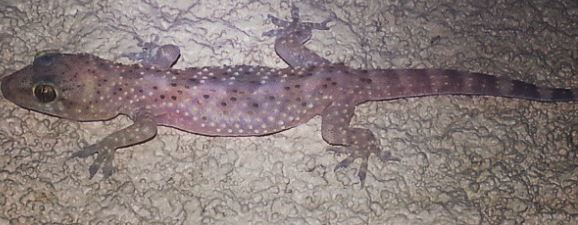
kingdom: Animalia
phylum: Chordata
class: Squamata
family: Gekkonidae
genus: Hemidactylus
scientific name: Hemidactylus turcicus
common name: Turkish gecko
